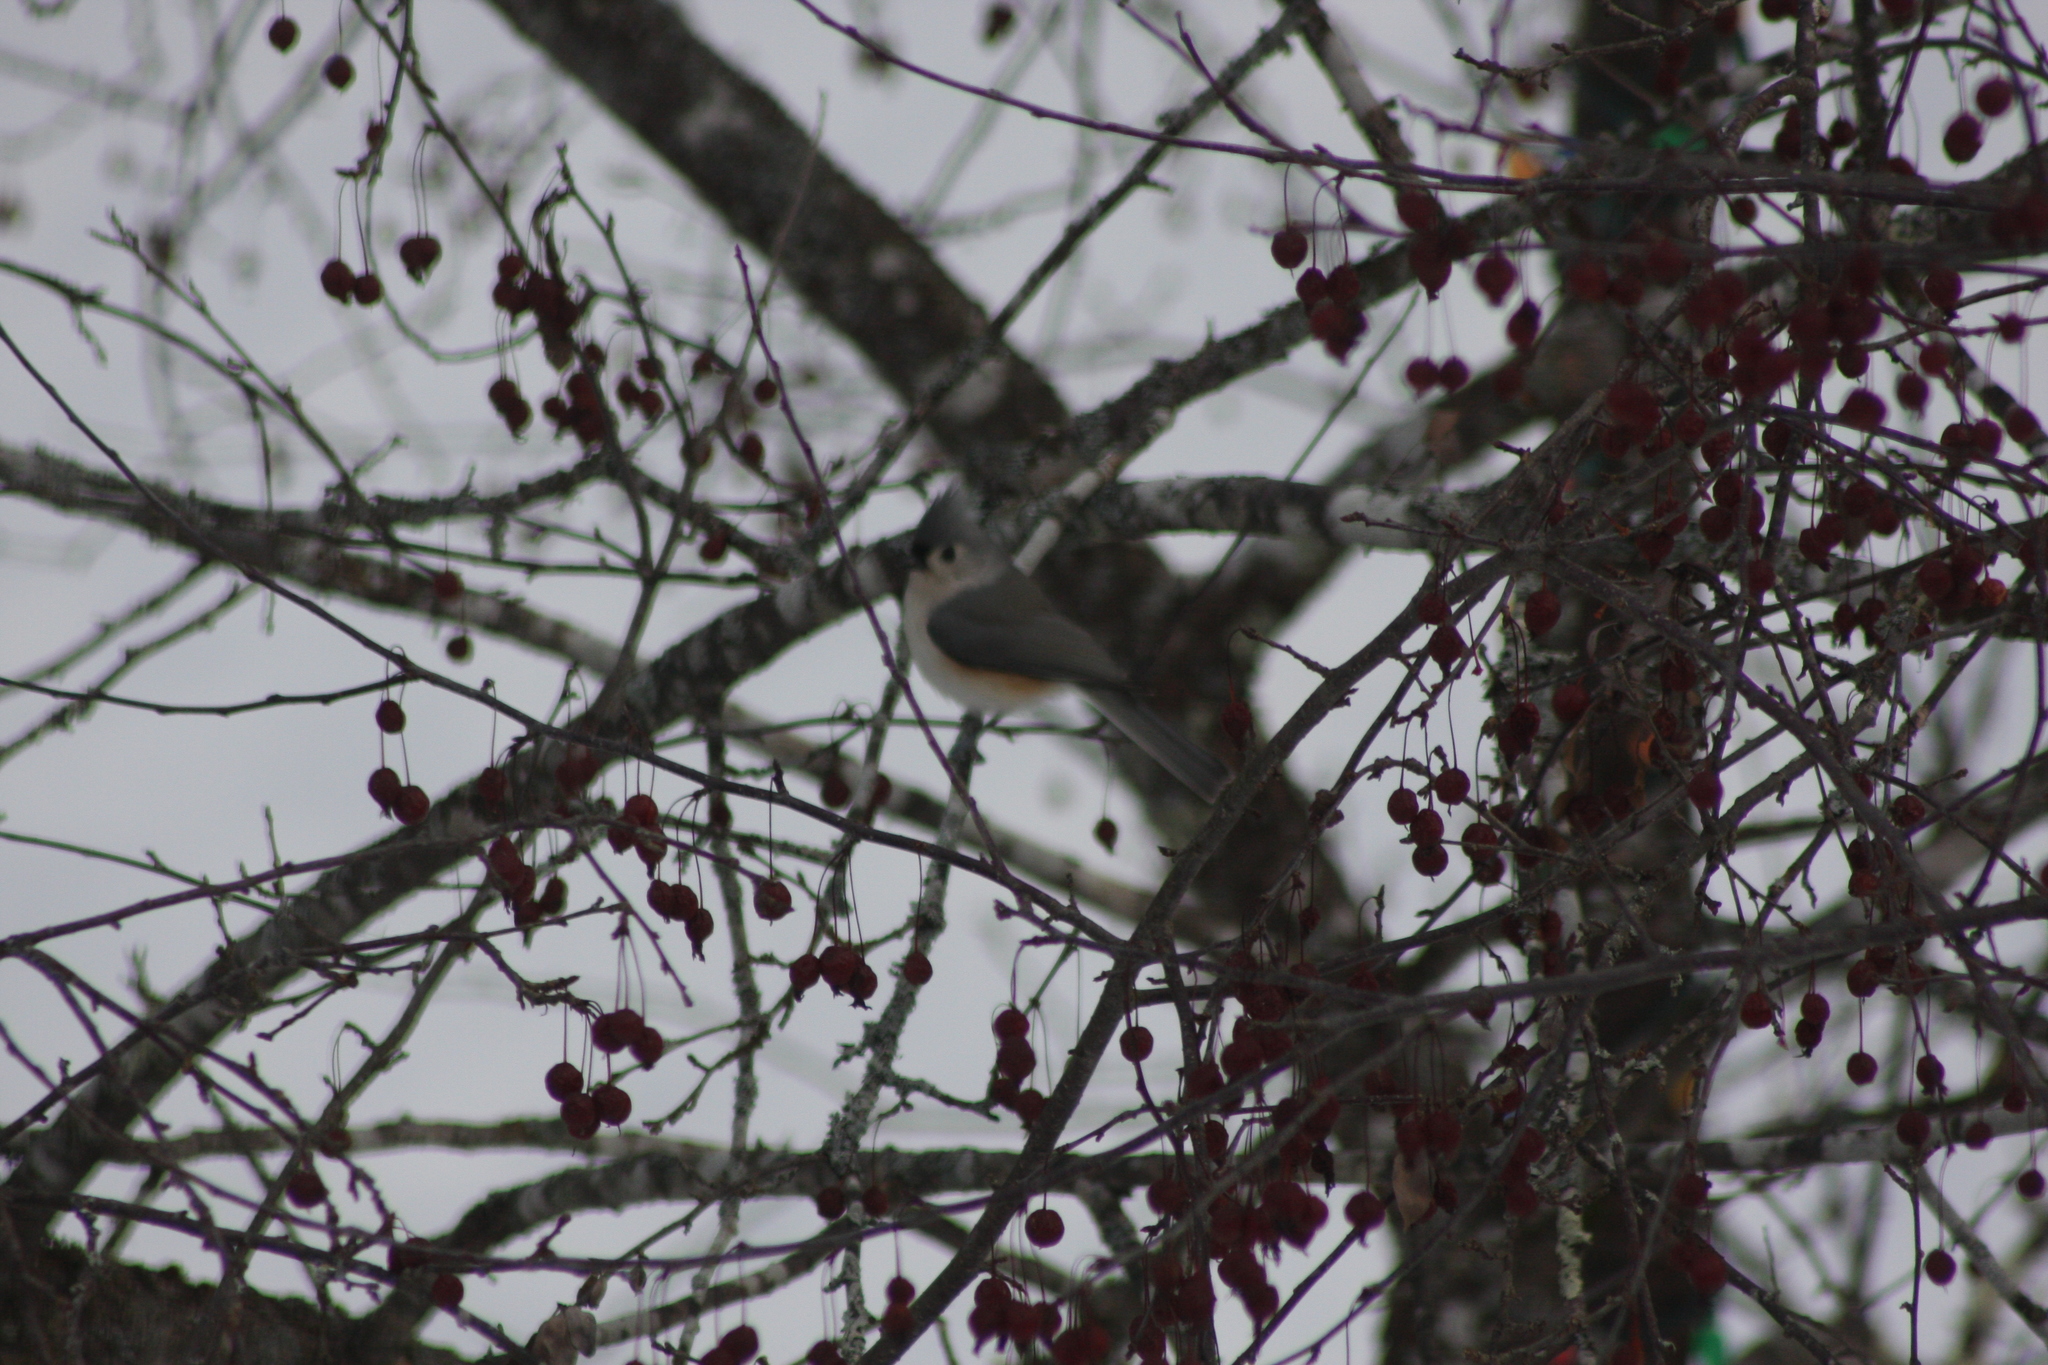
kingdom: Animalia
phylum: Chordata
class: Aves
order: Passeriformes
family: Paridae
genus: Baeolophus
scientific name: Baeolophus bicolor
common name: Tufted titmouse
